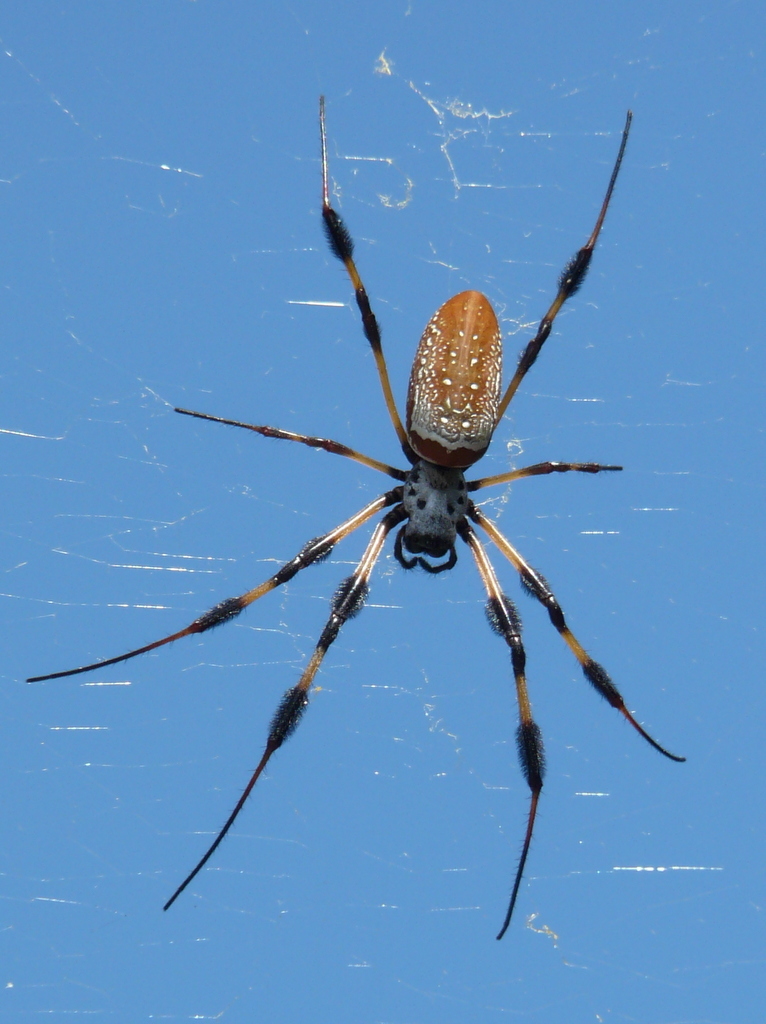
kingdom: Animalia
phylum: Arthropoda
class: Arachnida
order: Araneae
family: Araneidae
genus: Trichonephila
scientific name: Trichonephila clavipes
